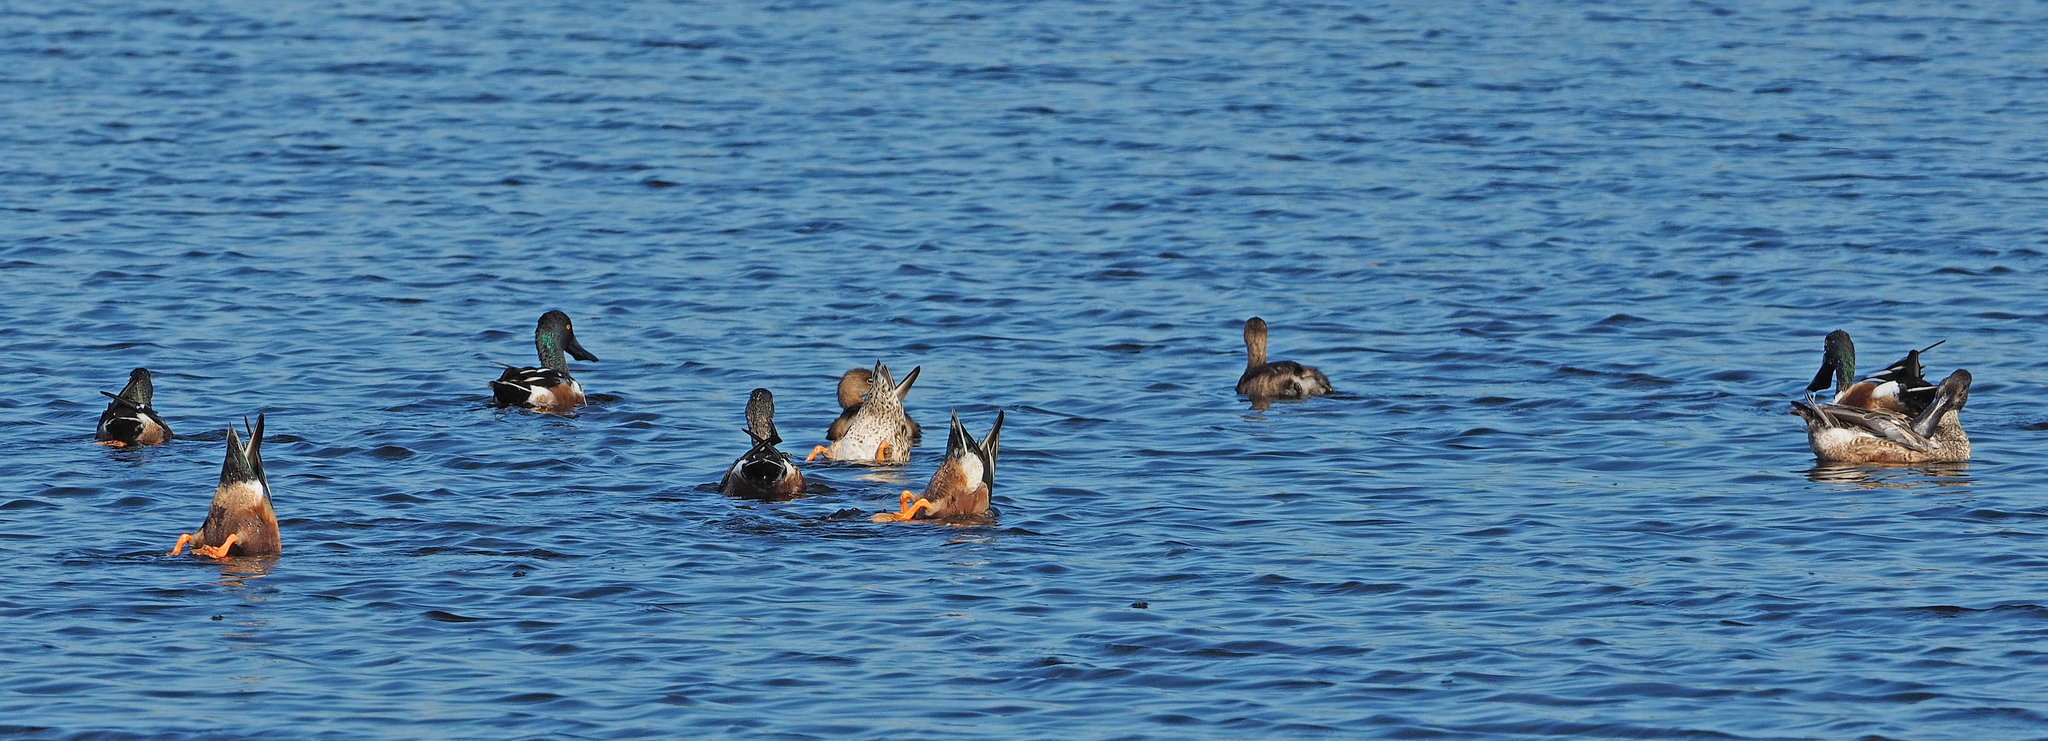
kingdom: Animalia
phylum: Chordata
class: Aves
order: Anseriformes
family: Anatidae
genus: Spatula
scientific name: Spatula clypeata
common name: Northern shoveler
